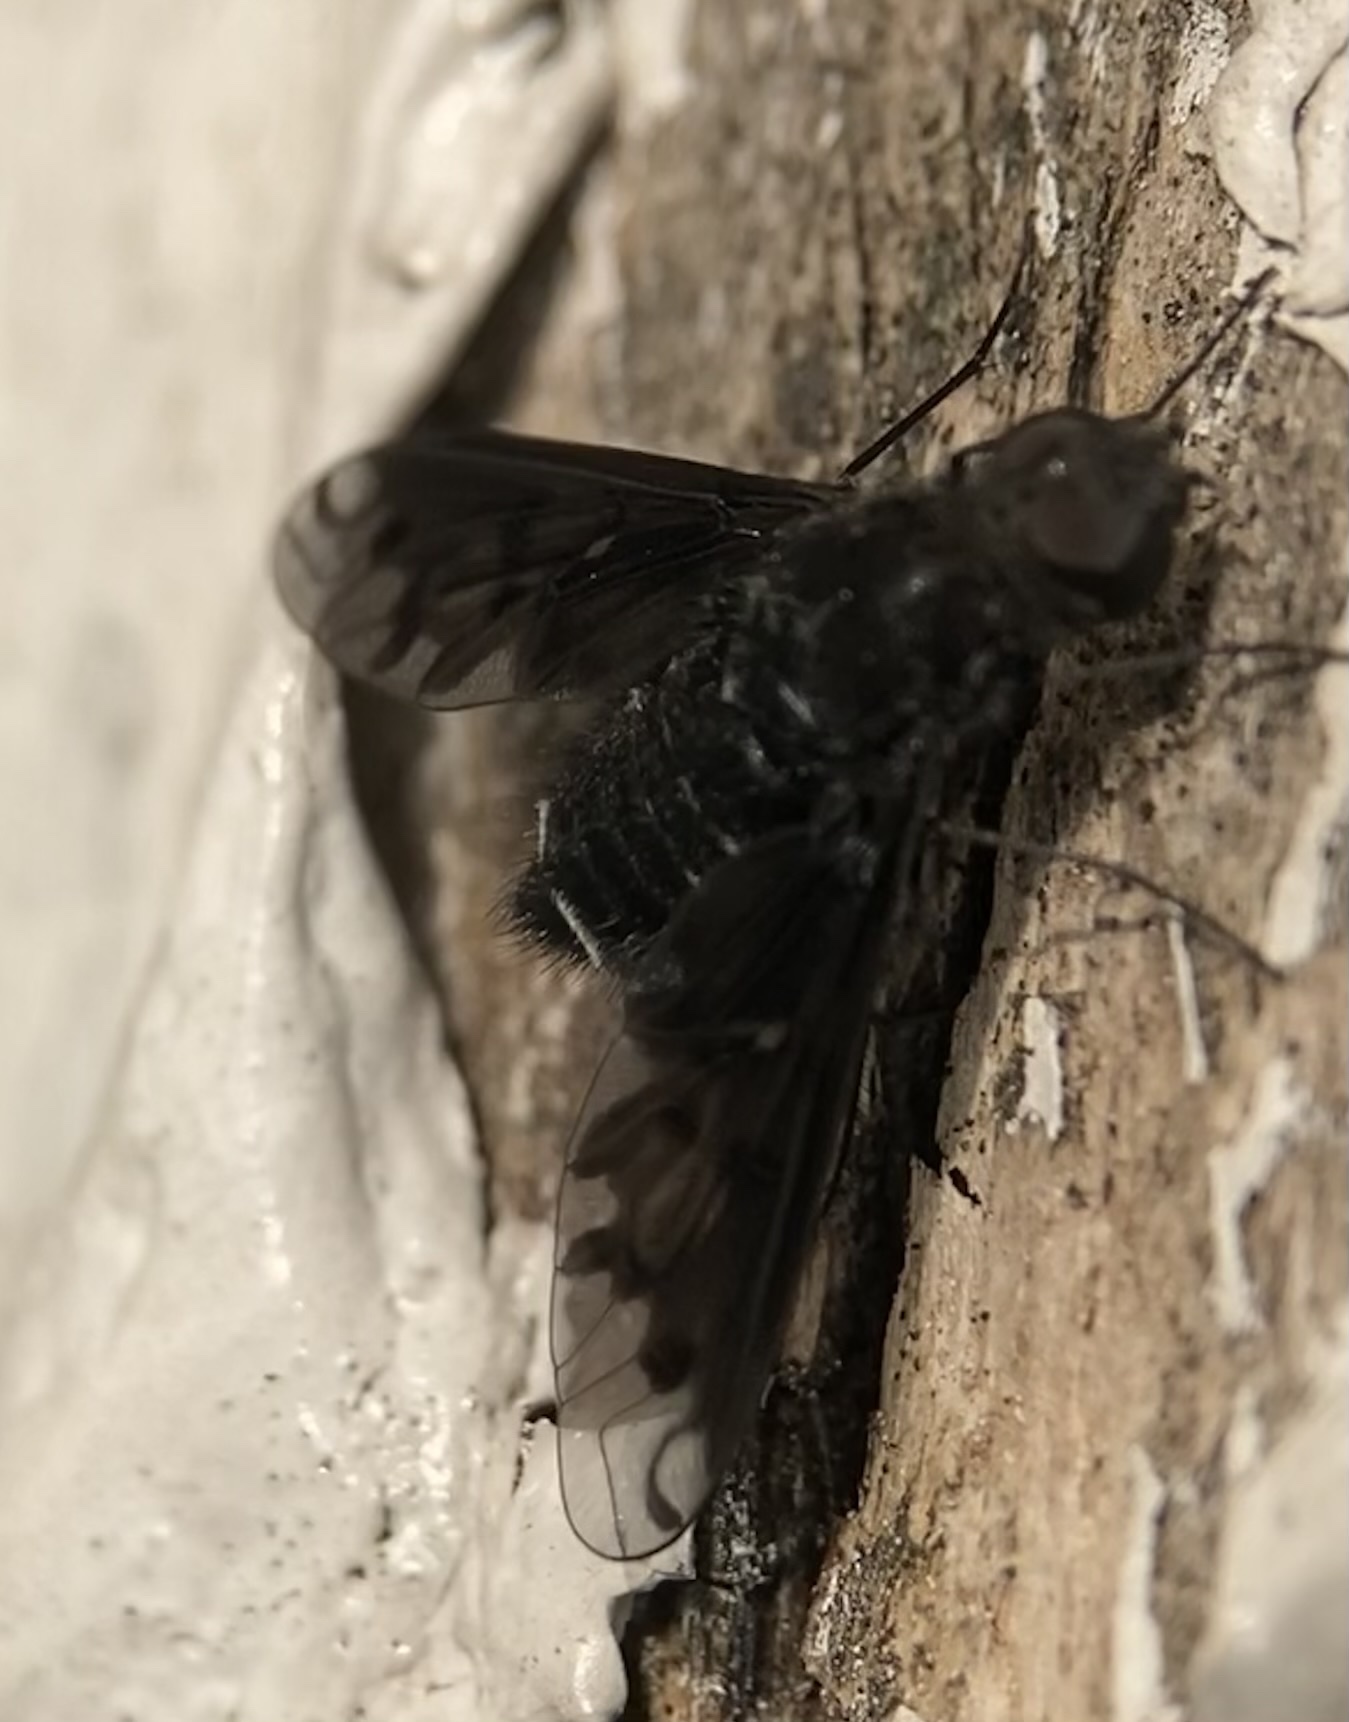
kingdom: Animalia
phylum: Arthropoda
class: Insecta
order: Diptera
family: Bombyliidae
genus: Anthrax
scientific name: Anthrax anthrax
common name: Anthracite bee-fly
